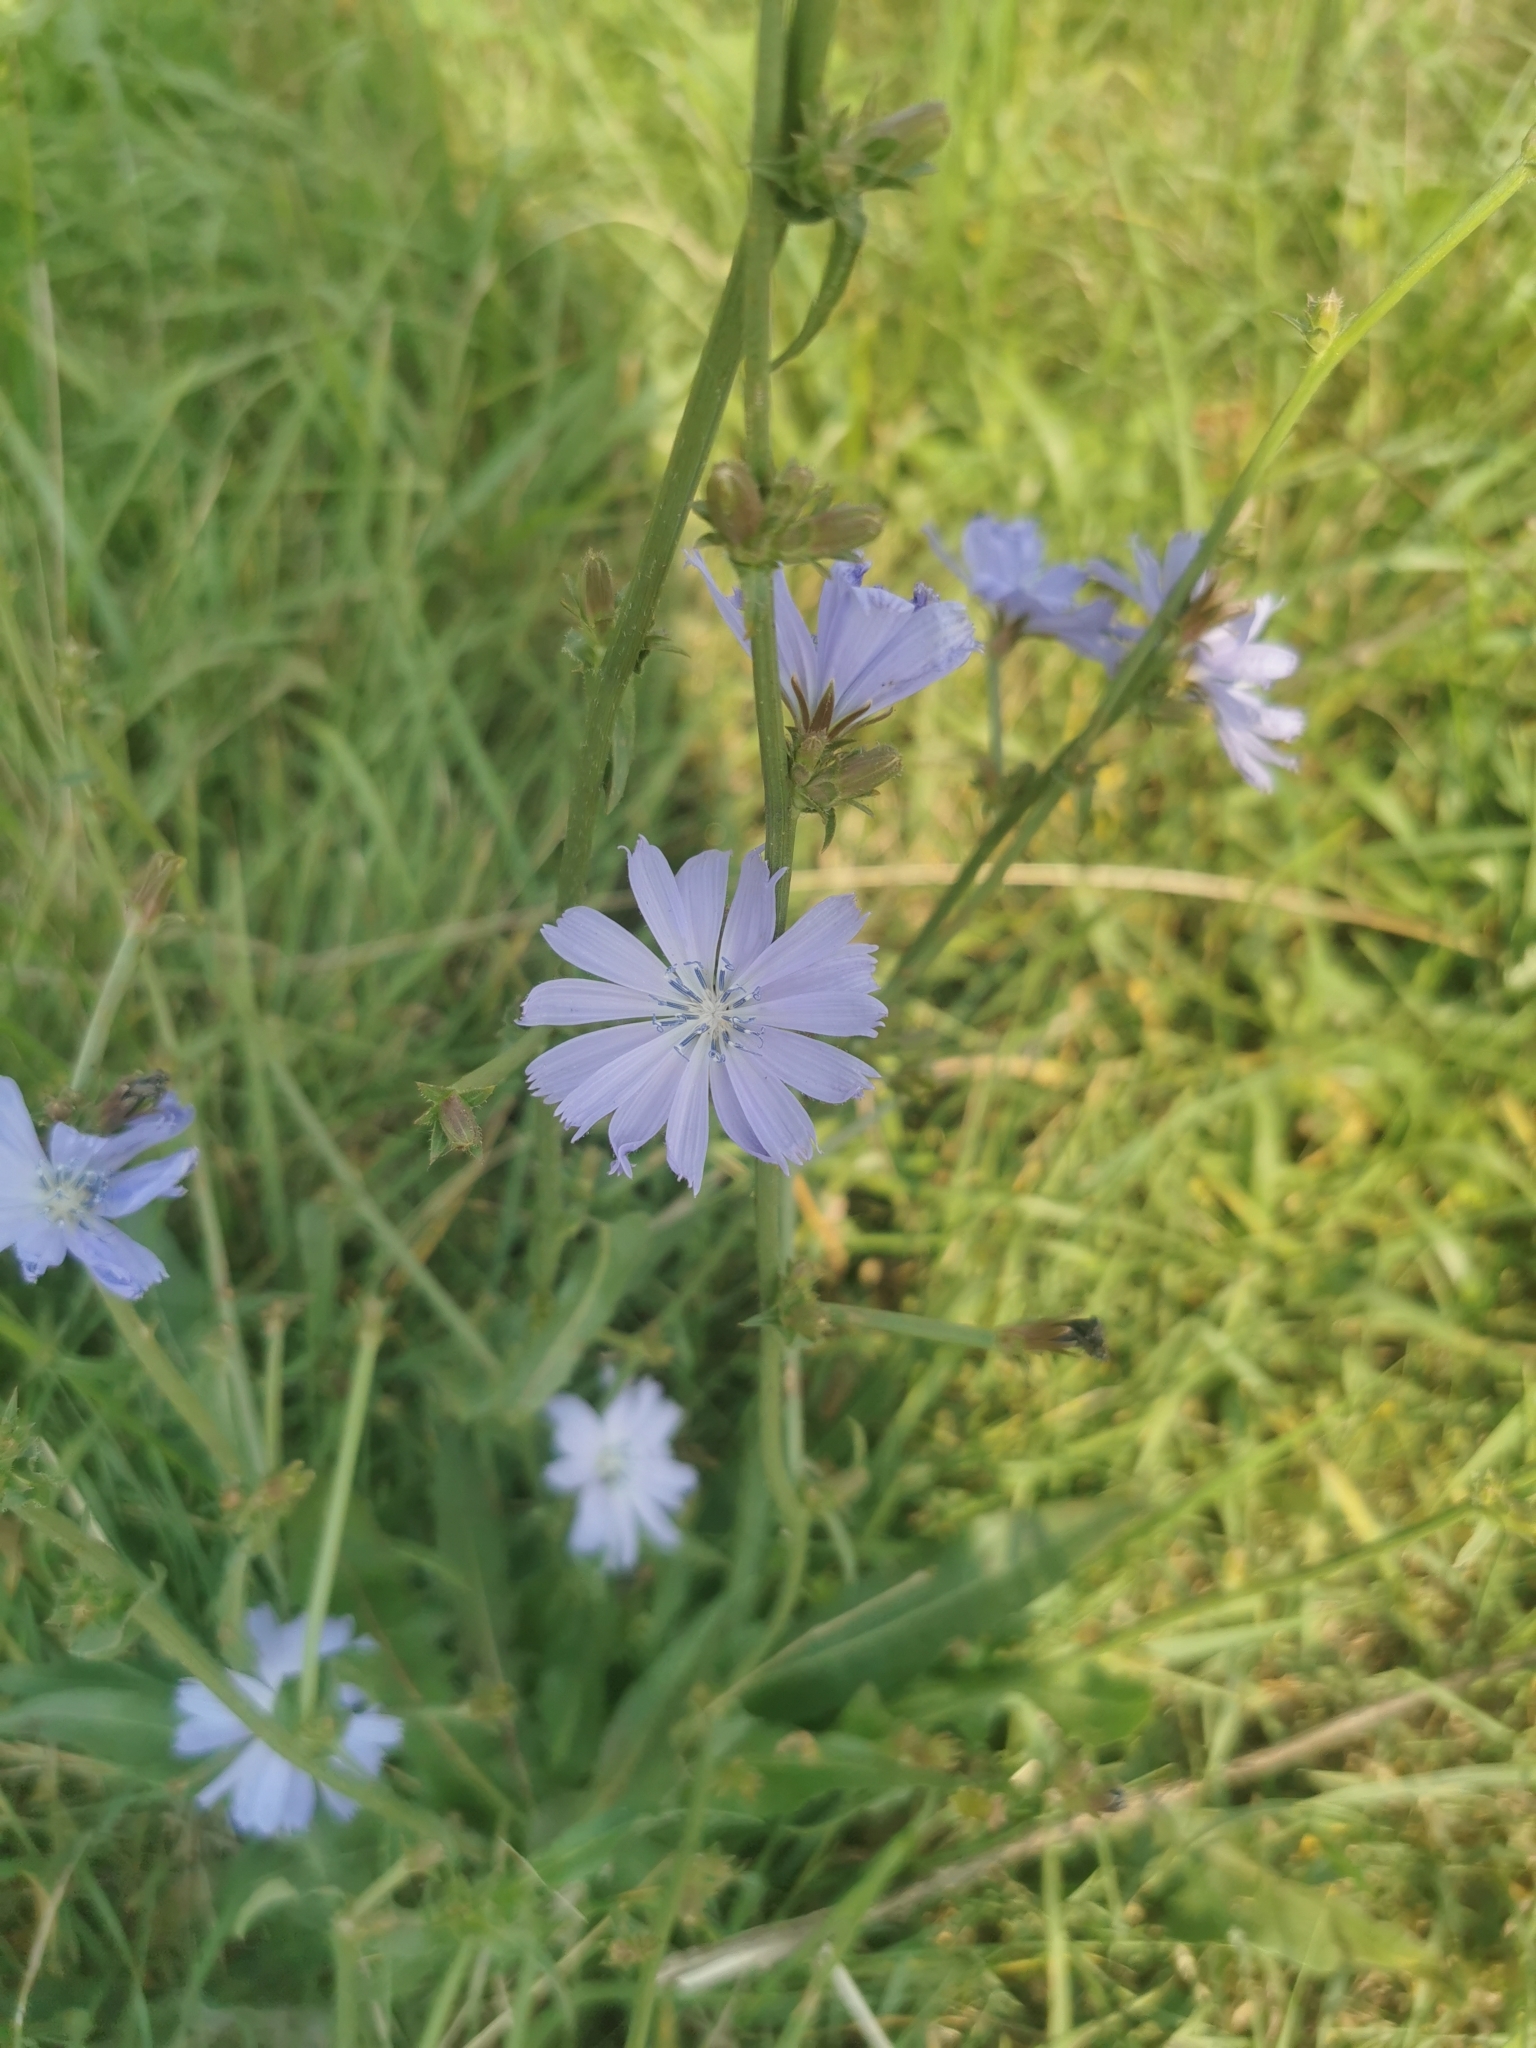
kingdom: Plantae
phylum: Tracheophyta
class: Magnoliopsida
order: Asterales
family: Asteraceae
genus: Cichorium
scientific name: Cichorium intybus
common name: Chicory
